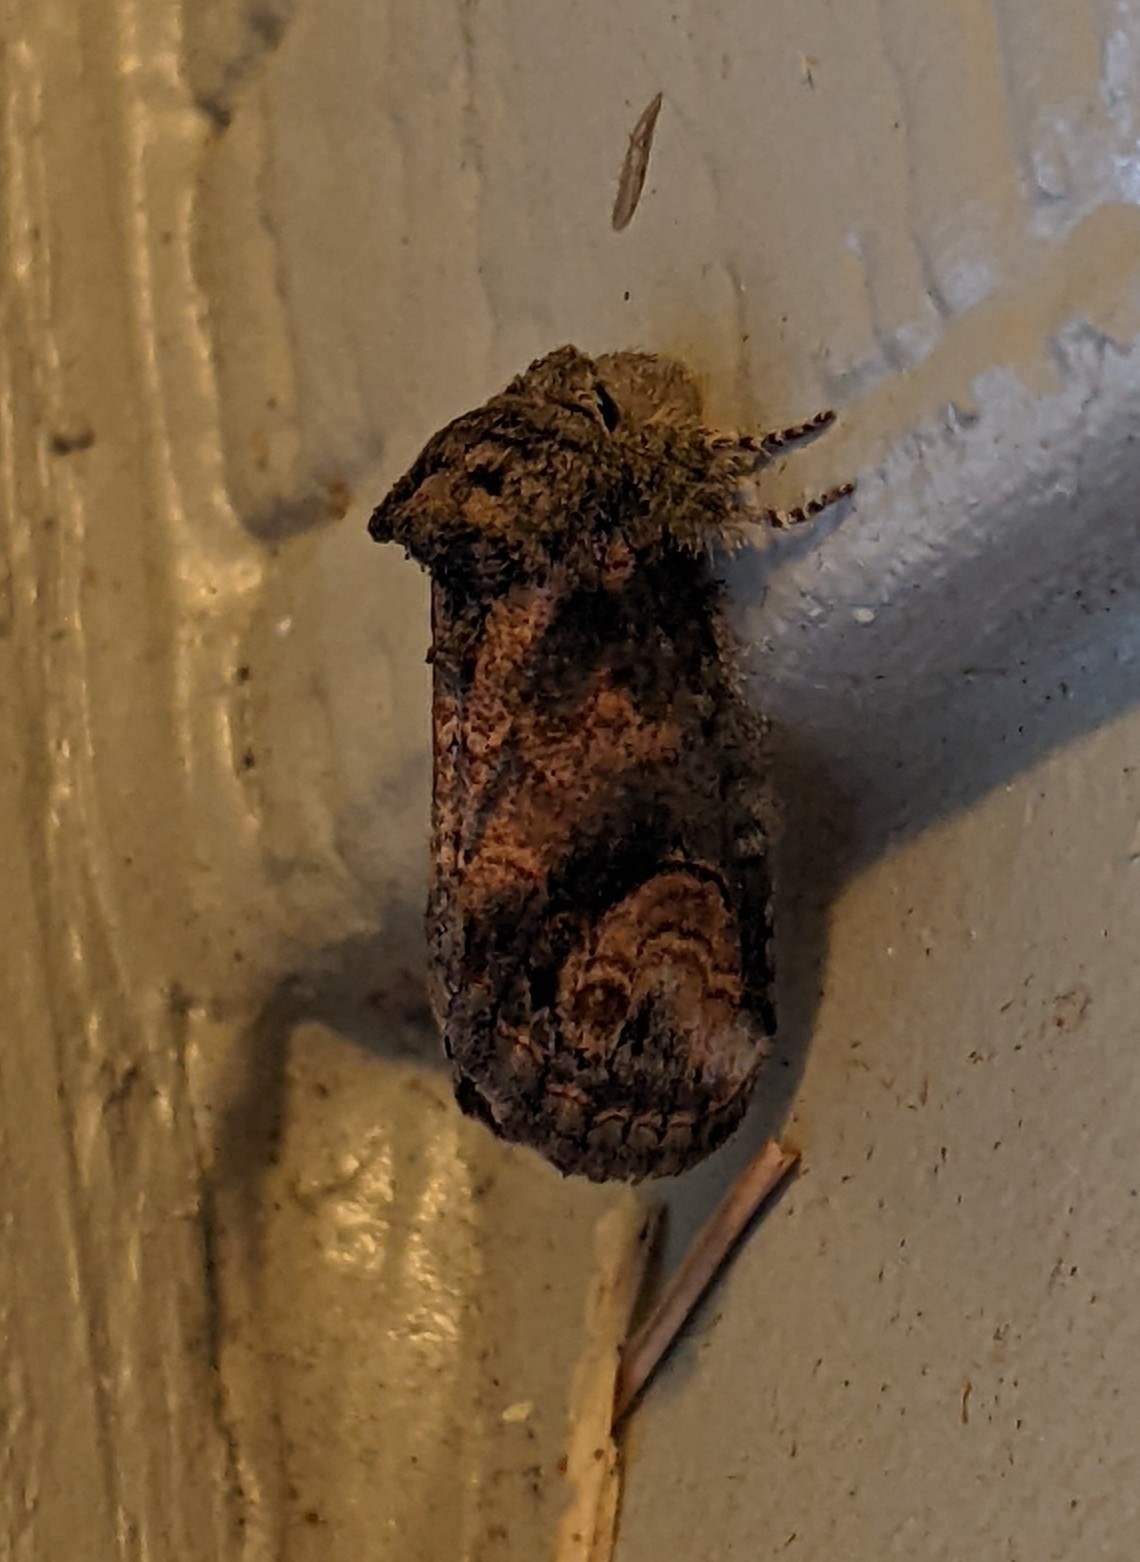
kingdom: Animalia
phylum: Arthropoda
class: Insecta
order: Lepidoptera
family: Notodontidae
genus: Rifargia
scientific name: Rifargia
